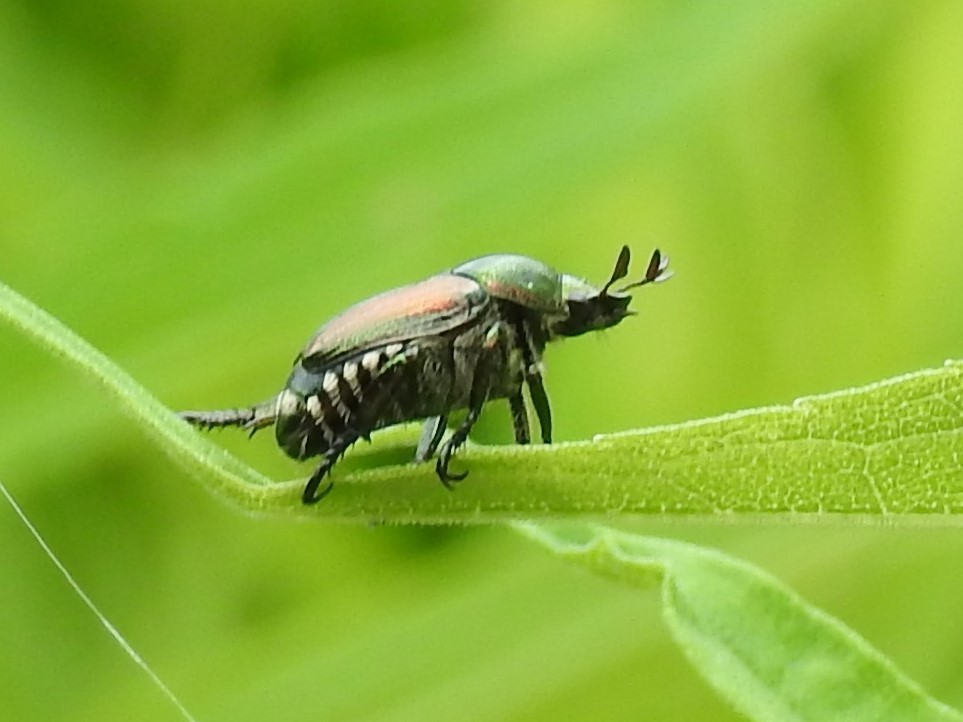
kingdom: Animalia
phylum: Arthropoda
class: Insecta
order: Coleoptera
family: Scarabaeidae
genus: Popillia
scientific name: Popillia japonica
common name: Japanese beetle
